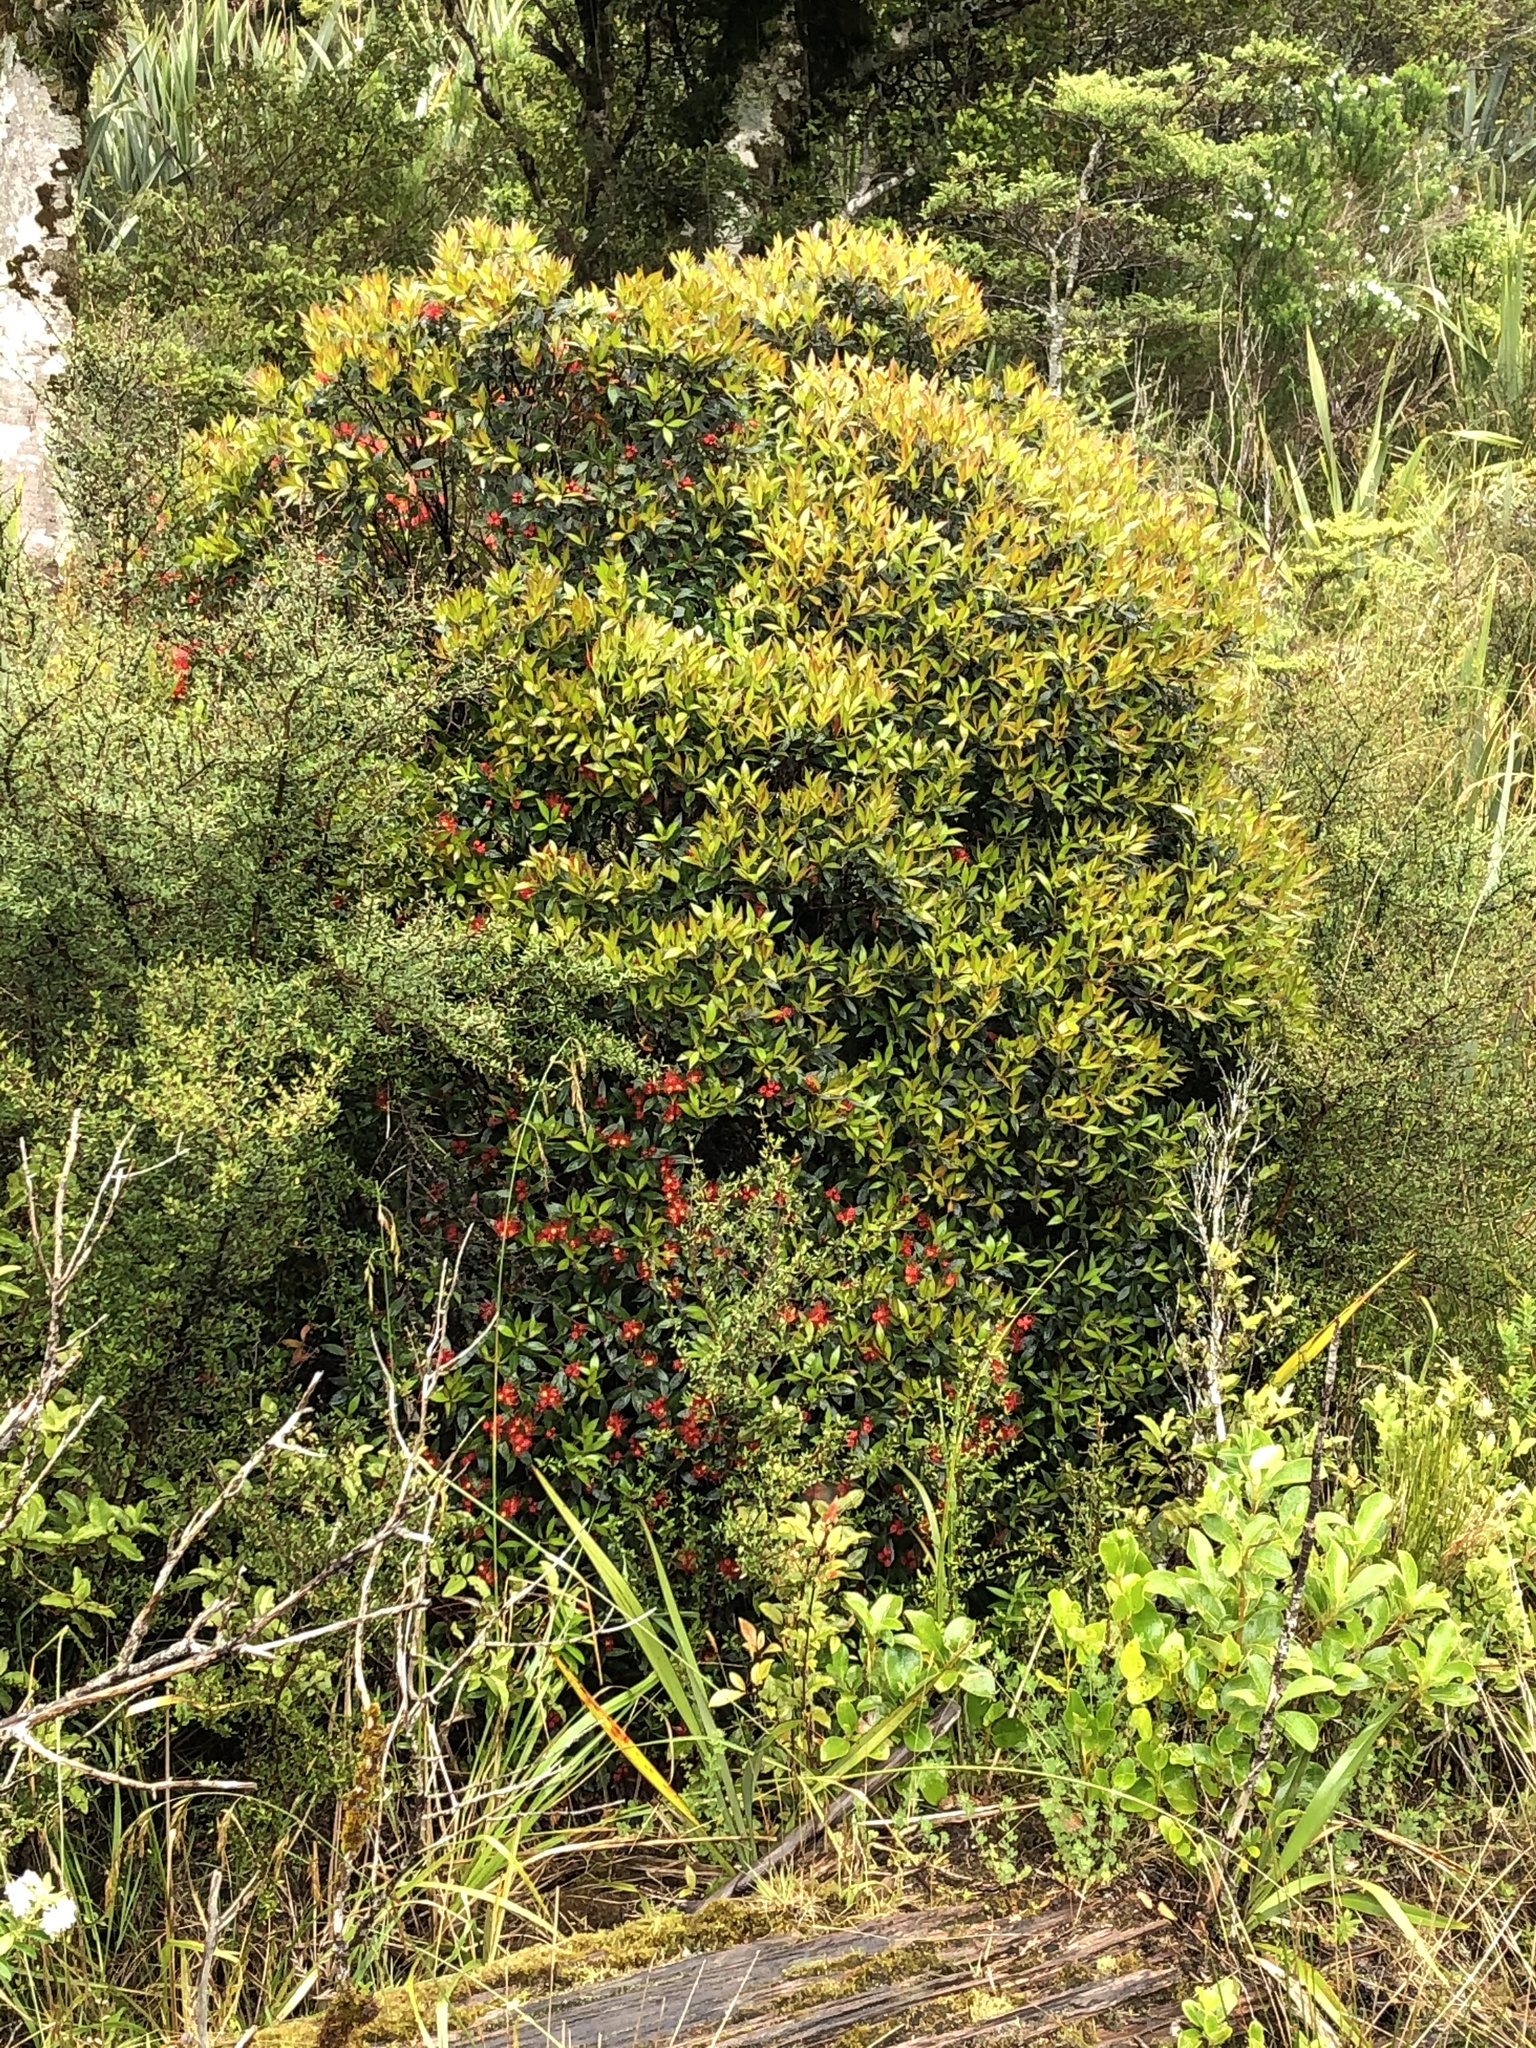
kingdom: Plantae
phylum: Tracheophyta
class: Magnoliopsida
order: Myrtales
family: Myrtaceae
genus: Metrosideros
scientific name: Metrosideros umbellata
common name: Southern rata
